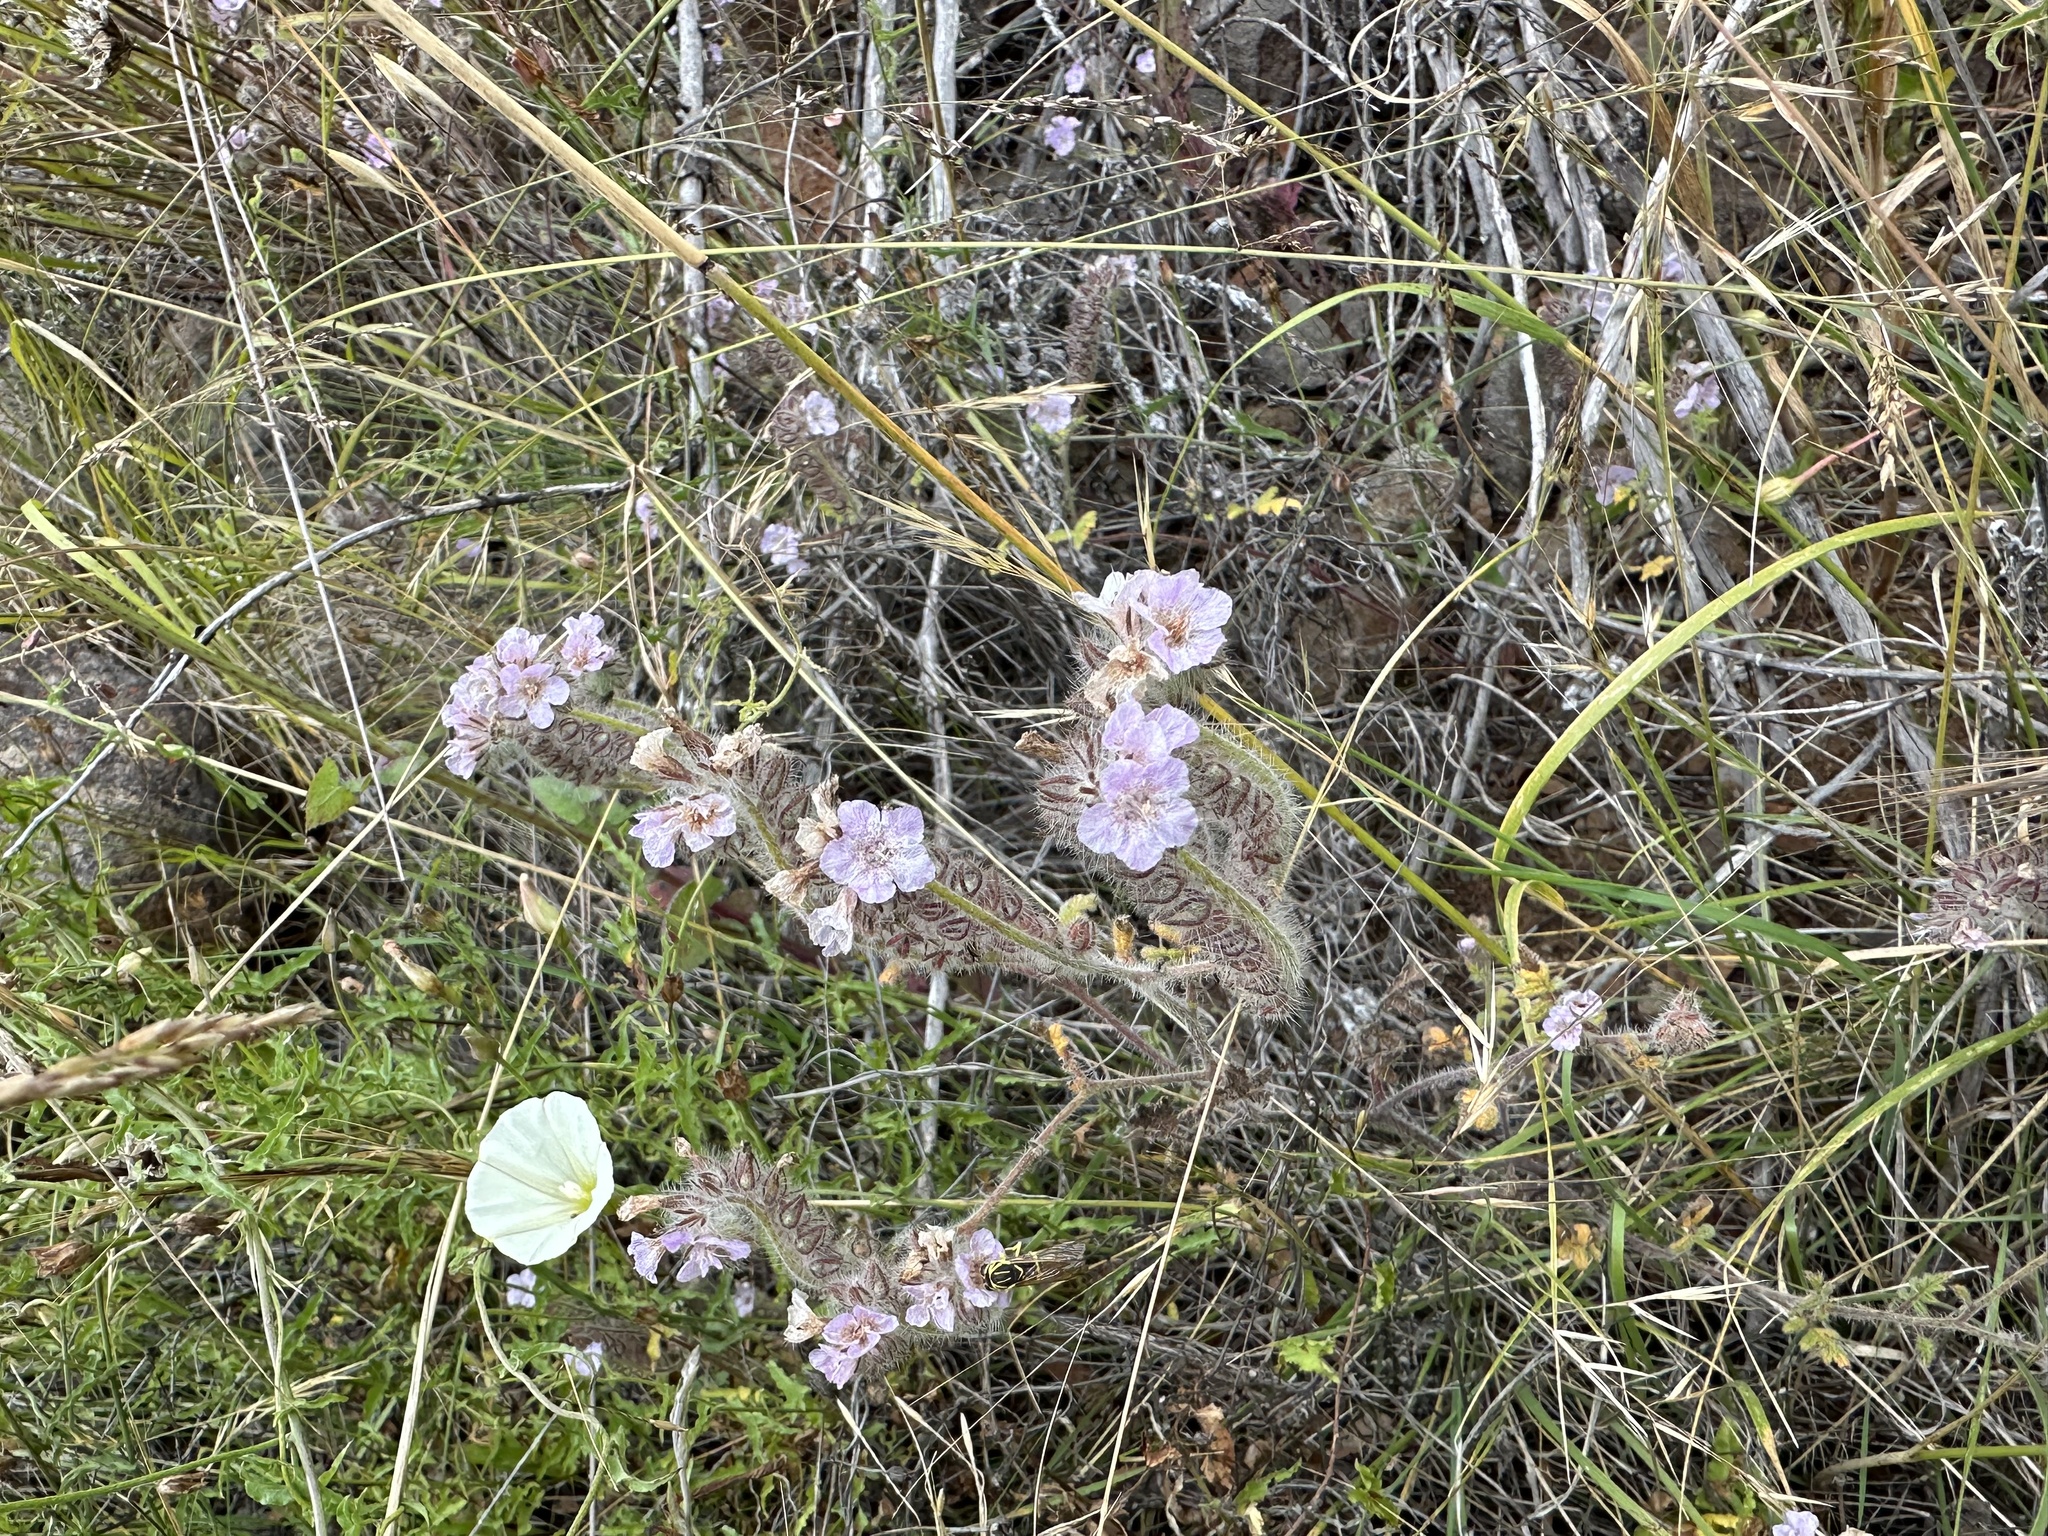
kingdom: Plantae
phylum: Tracheophyta
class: Magnoliopsida
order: Boraginales
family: Hydrophyllaceae
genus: Phacelia
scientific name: Phacelia cicutaria
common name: Caterpillar phacelia
